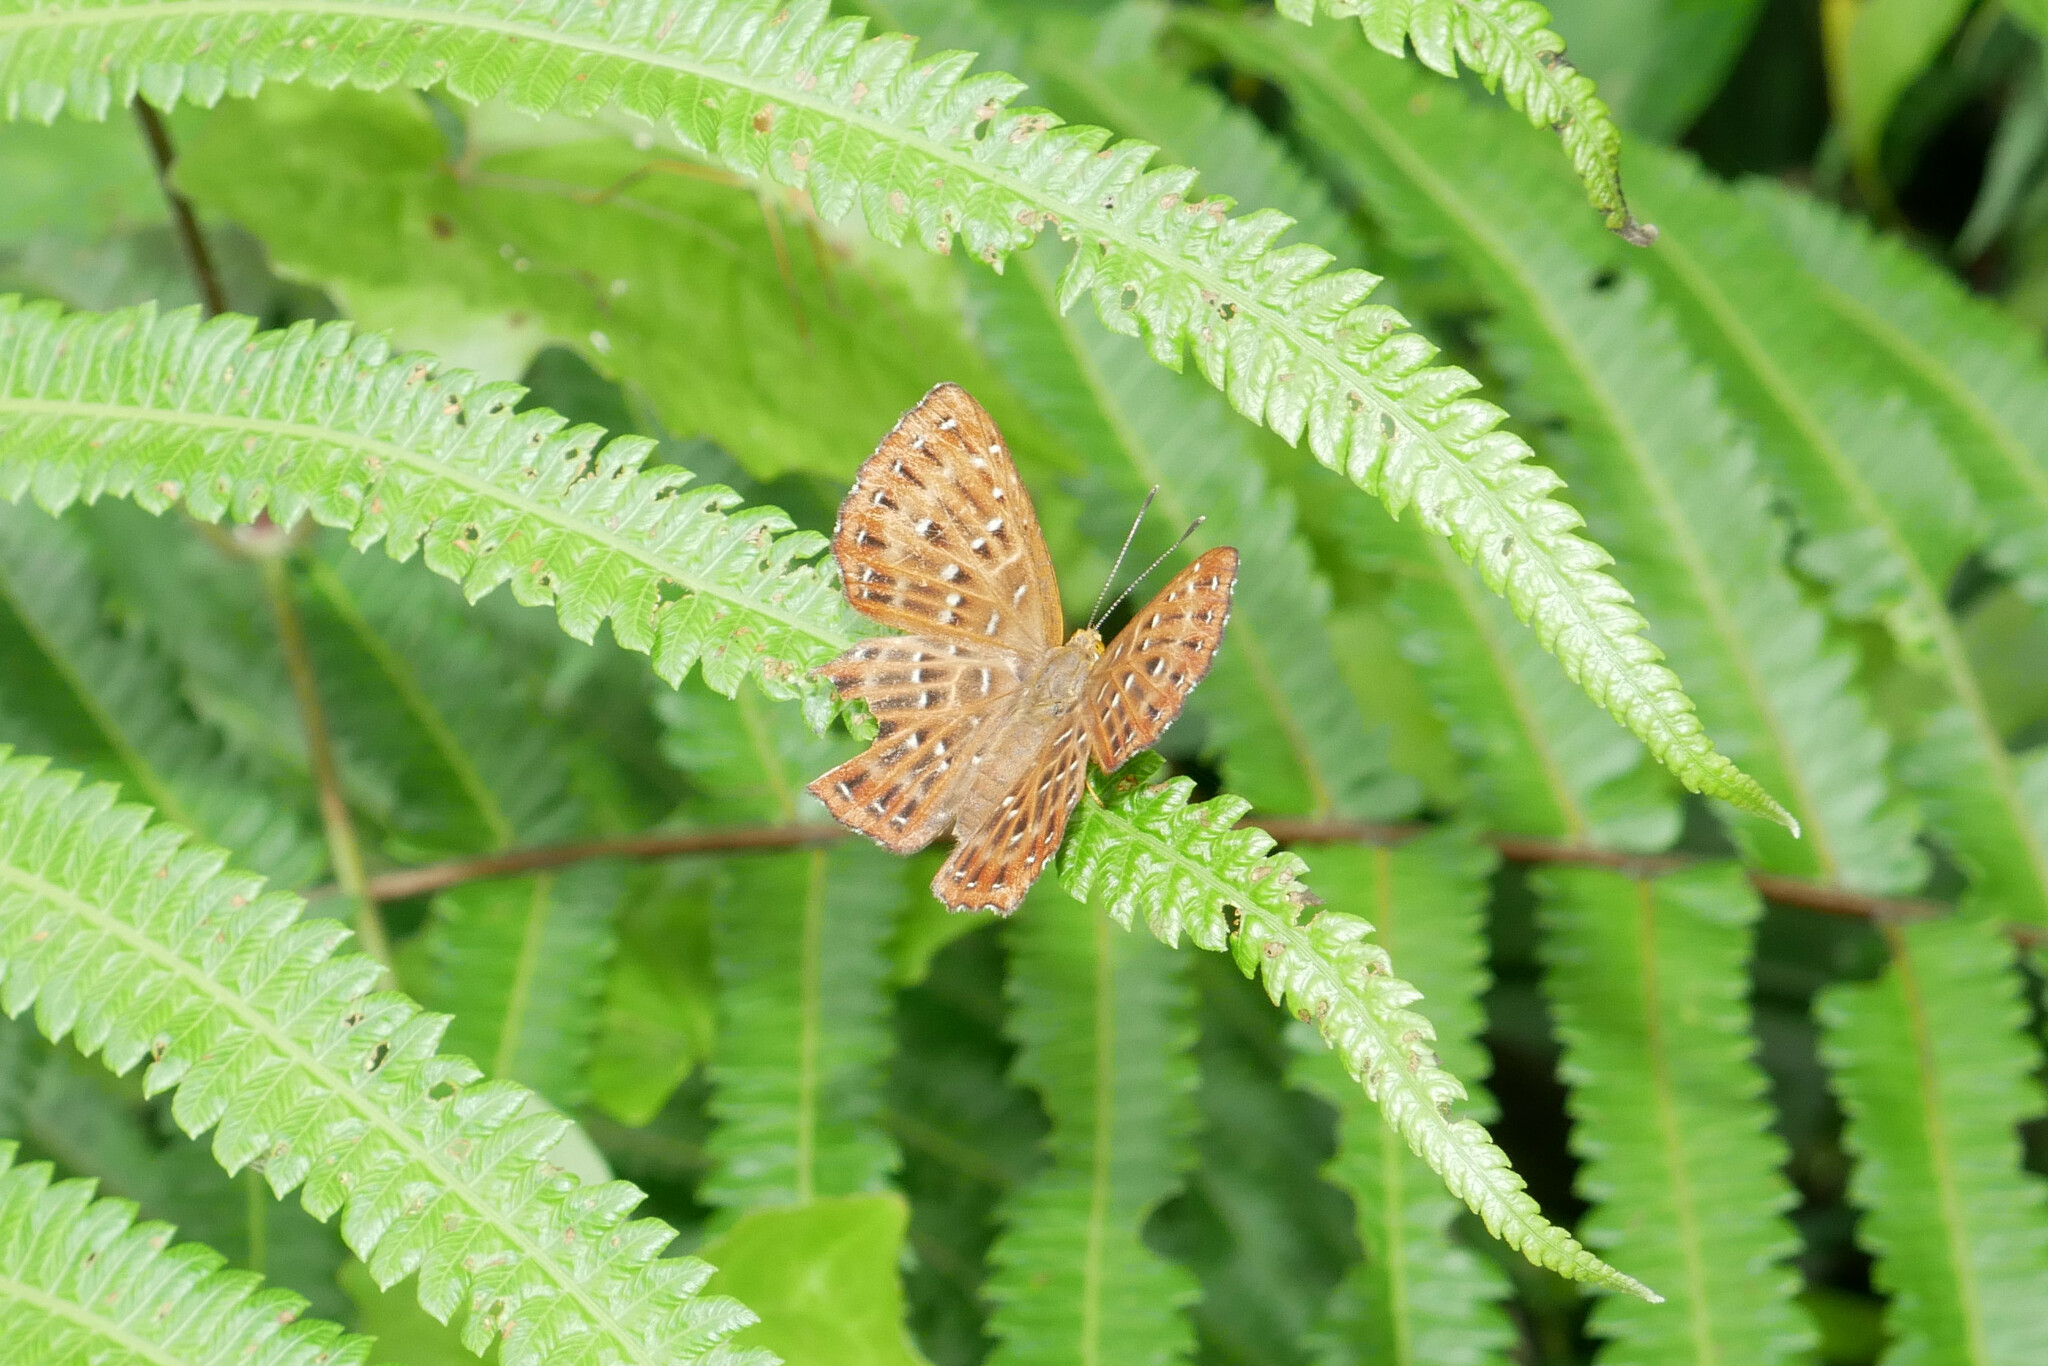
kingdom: Animalia
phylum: Arthropoda
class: Insecta
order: Lepidoptera
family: Riodinidae
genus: Zemeros
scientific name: Zemeros flegyas
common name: Punchinello
